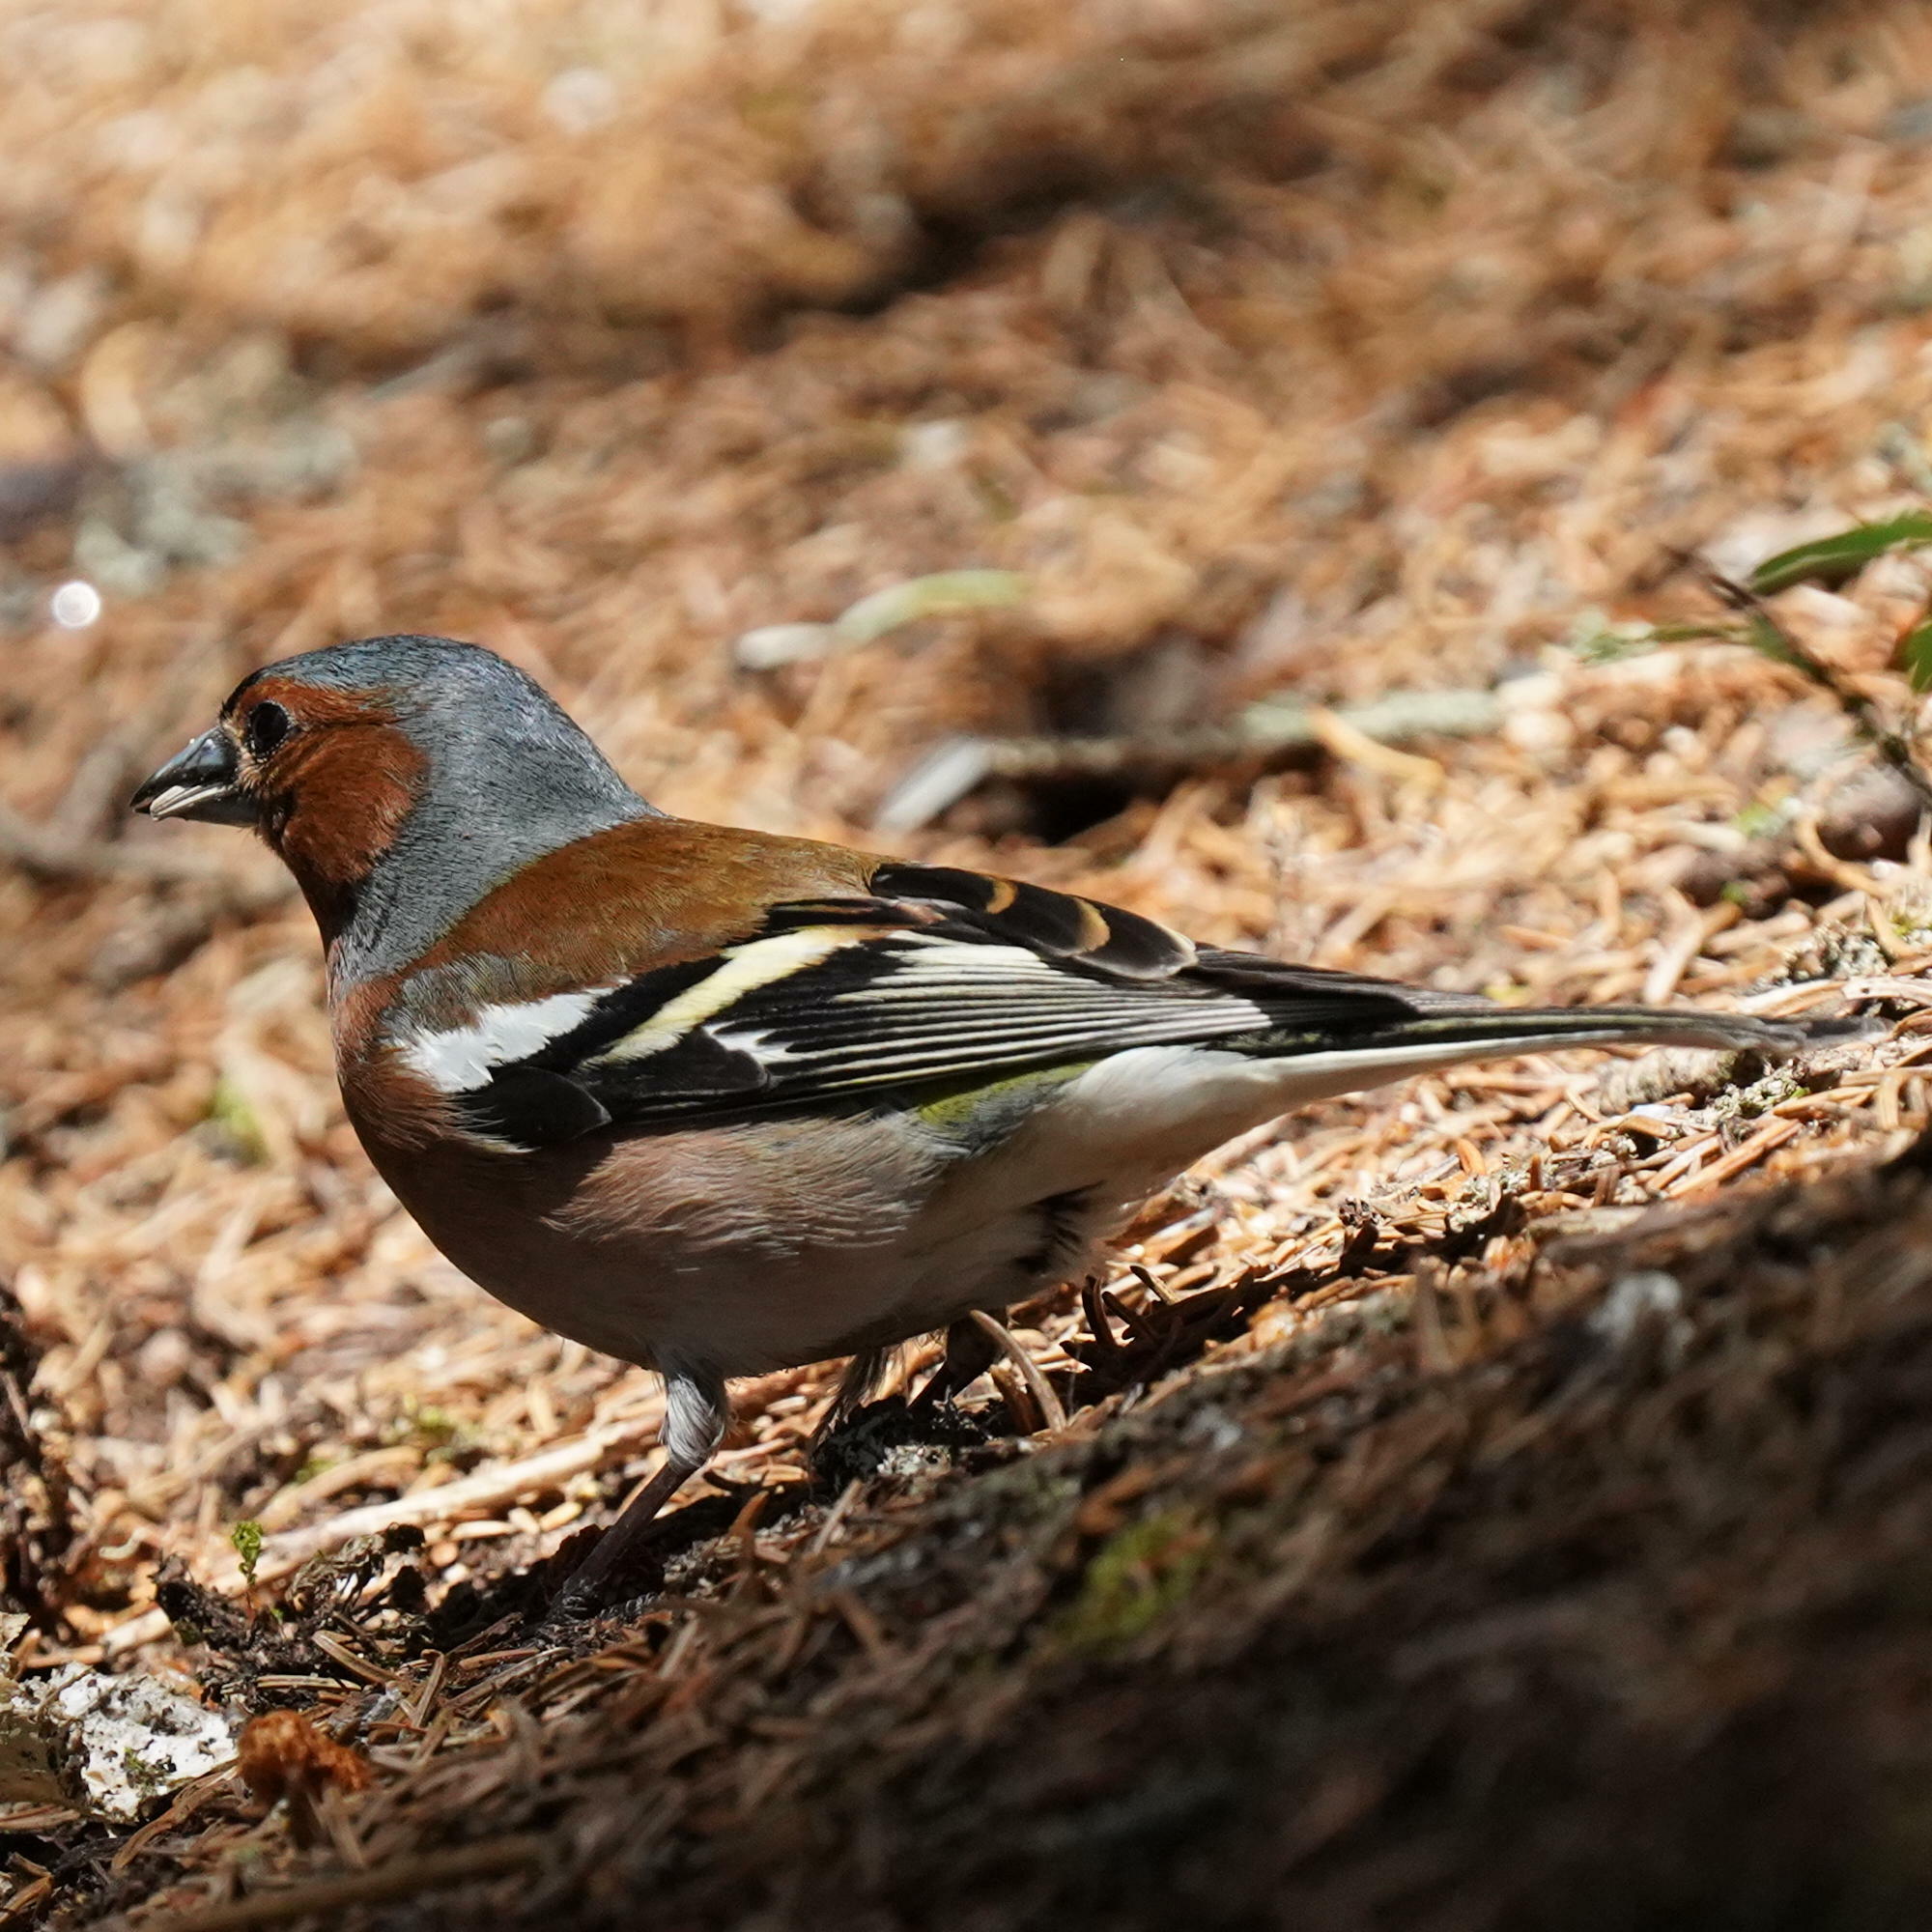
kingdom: Animalia
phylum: Chordata
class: Aves
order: Passeriformes
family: Fringillidae
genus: Fringilla
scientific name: Fringilla coelebs
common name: Common chaffinch
